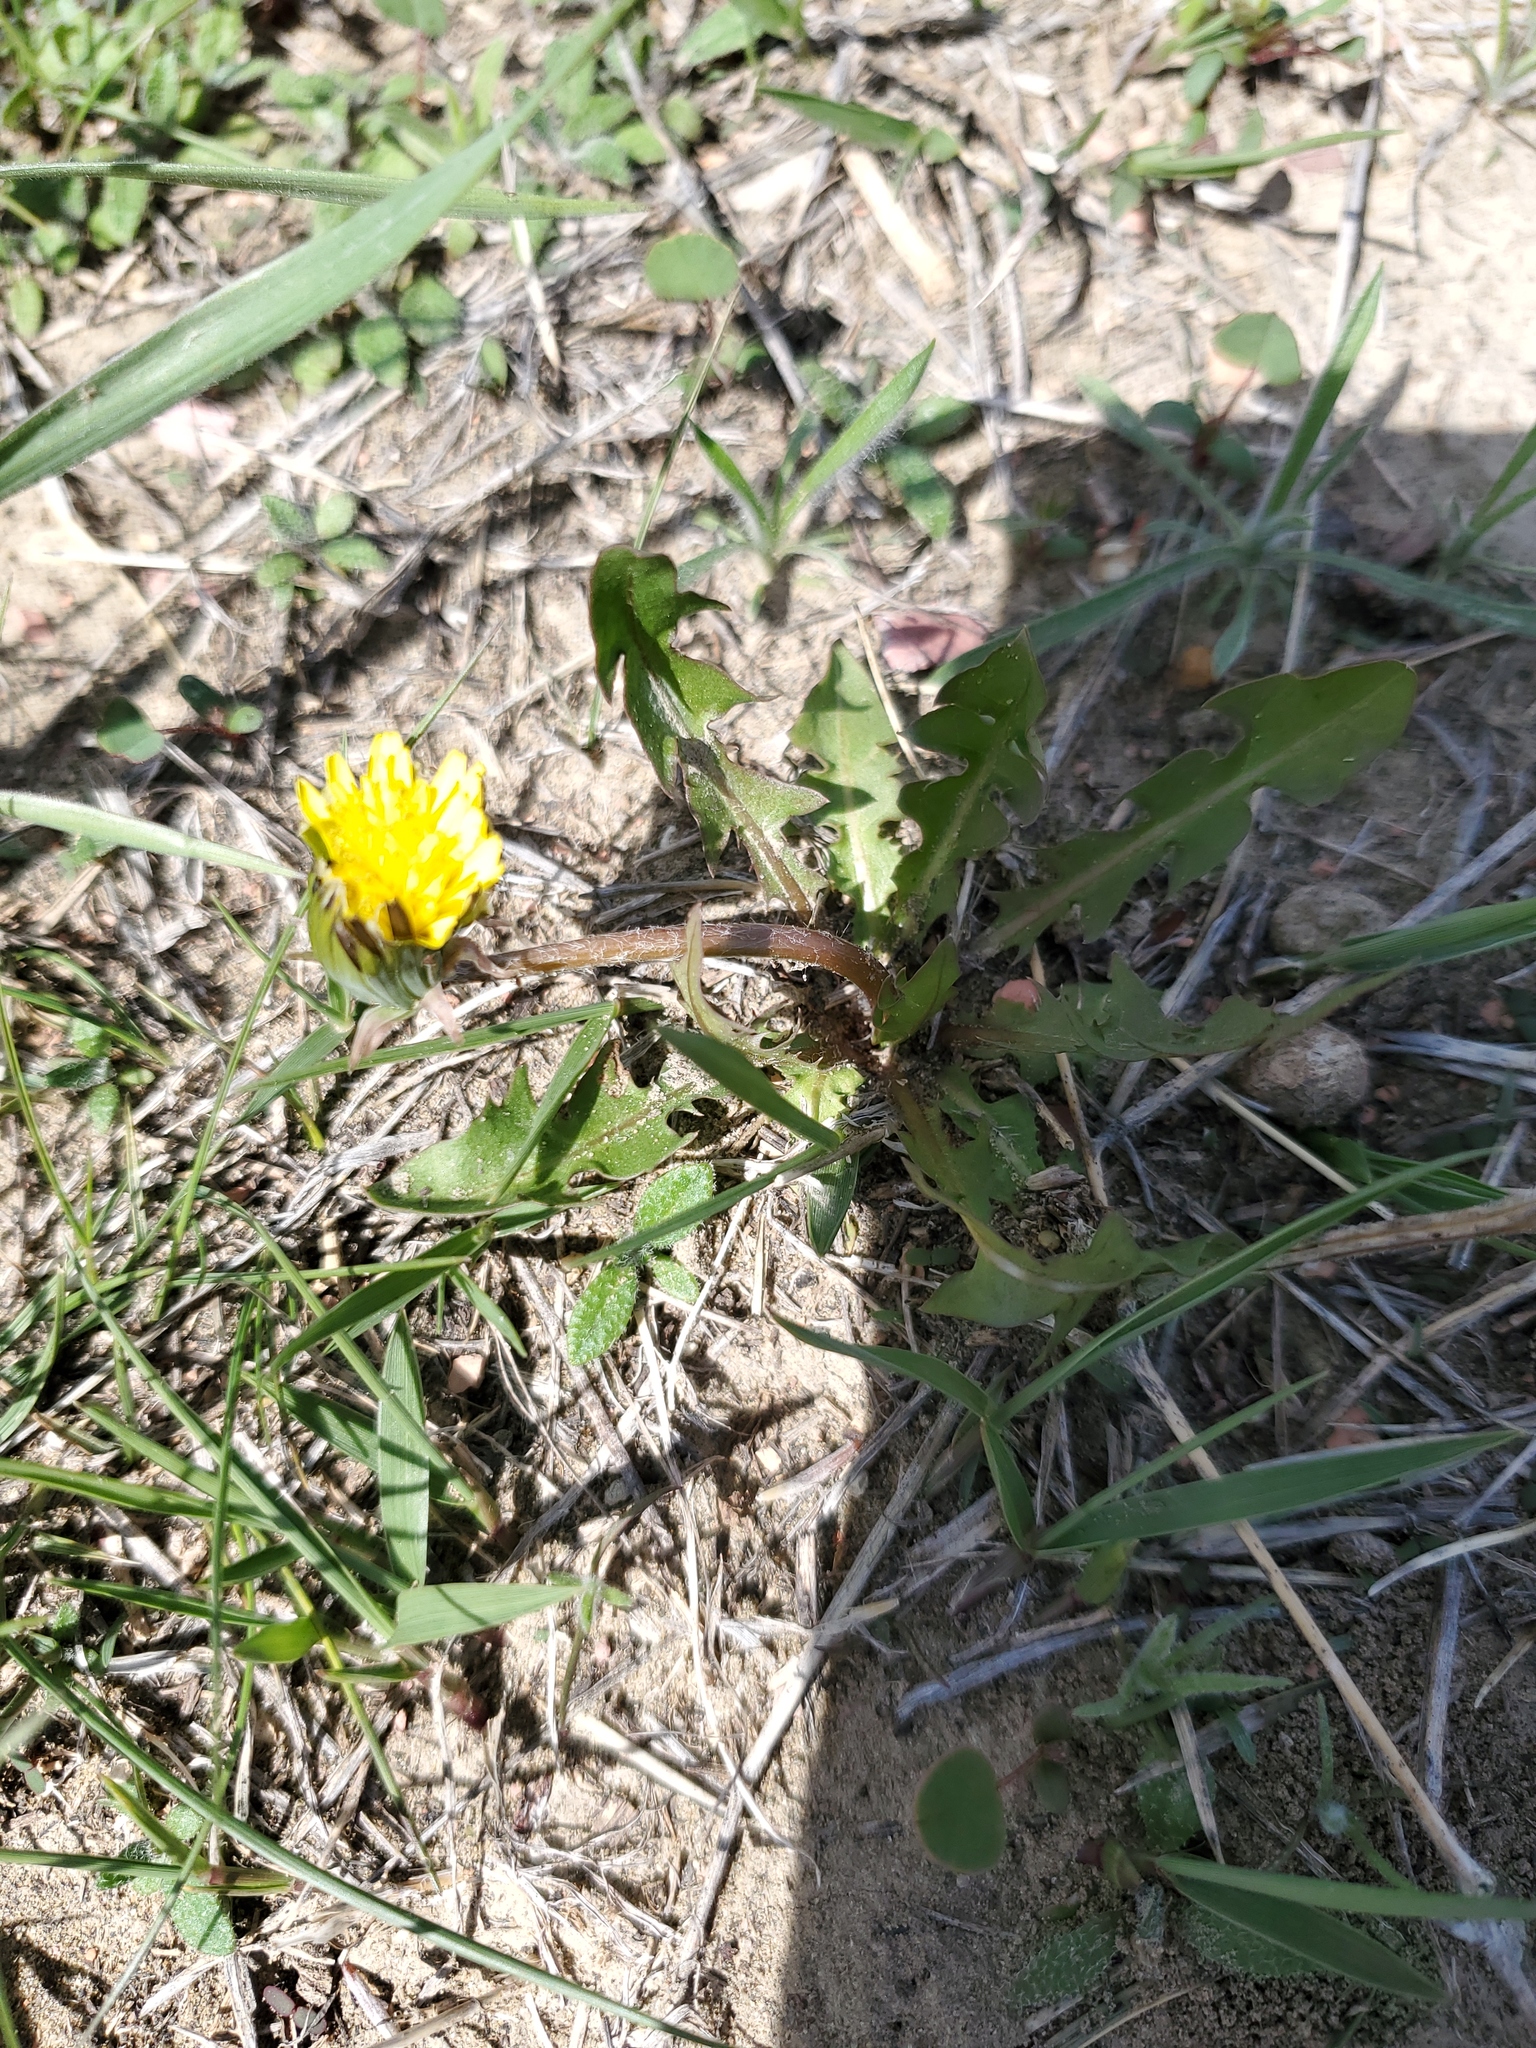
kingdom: Plantae
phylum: Tracheophyta
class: Magnoliopsida
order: Asterales
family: Asteraceae
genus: Taraxacum
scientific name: Taraxacum officinale
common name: Common dandelion
